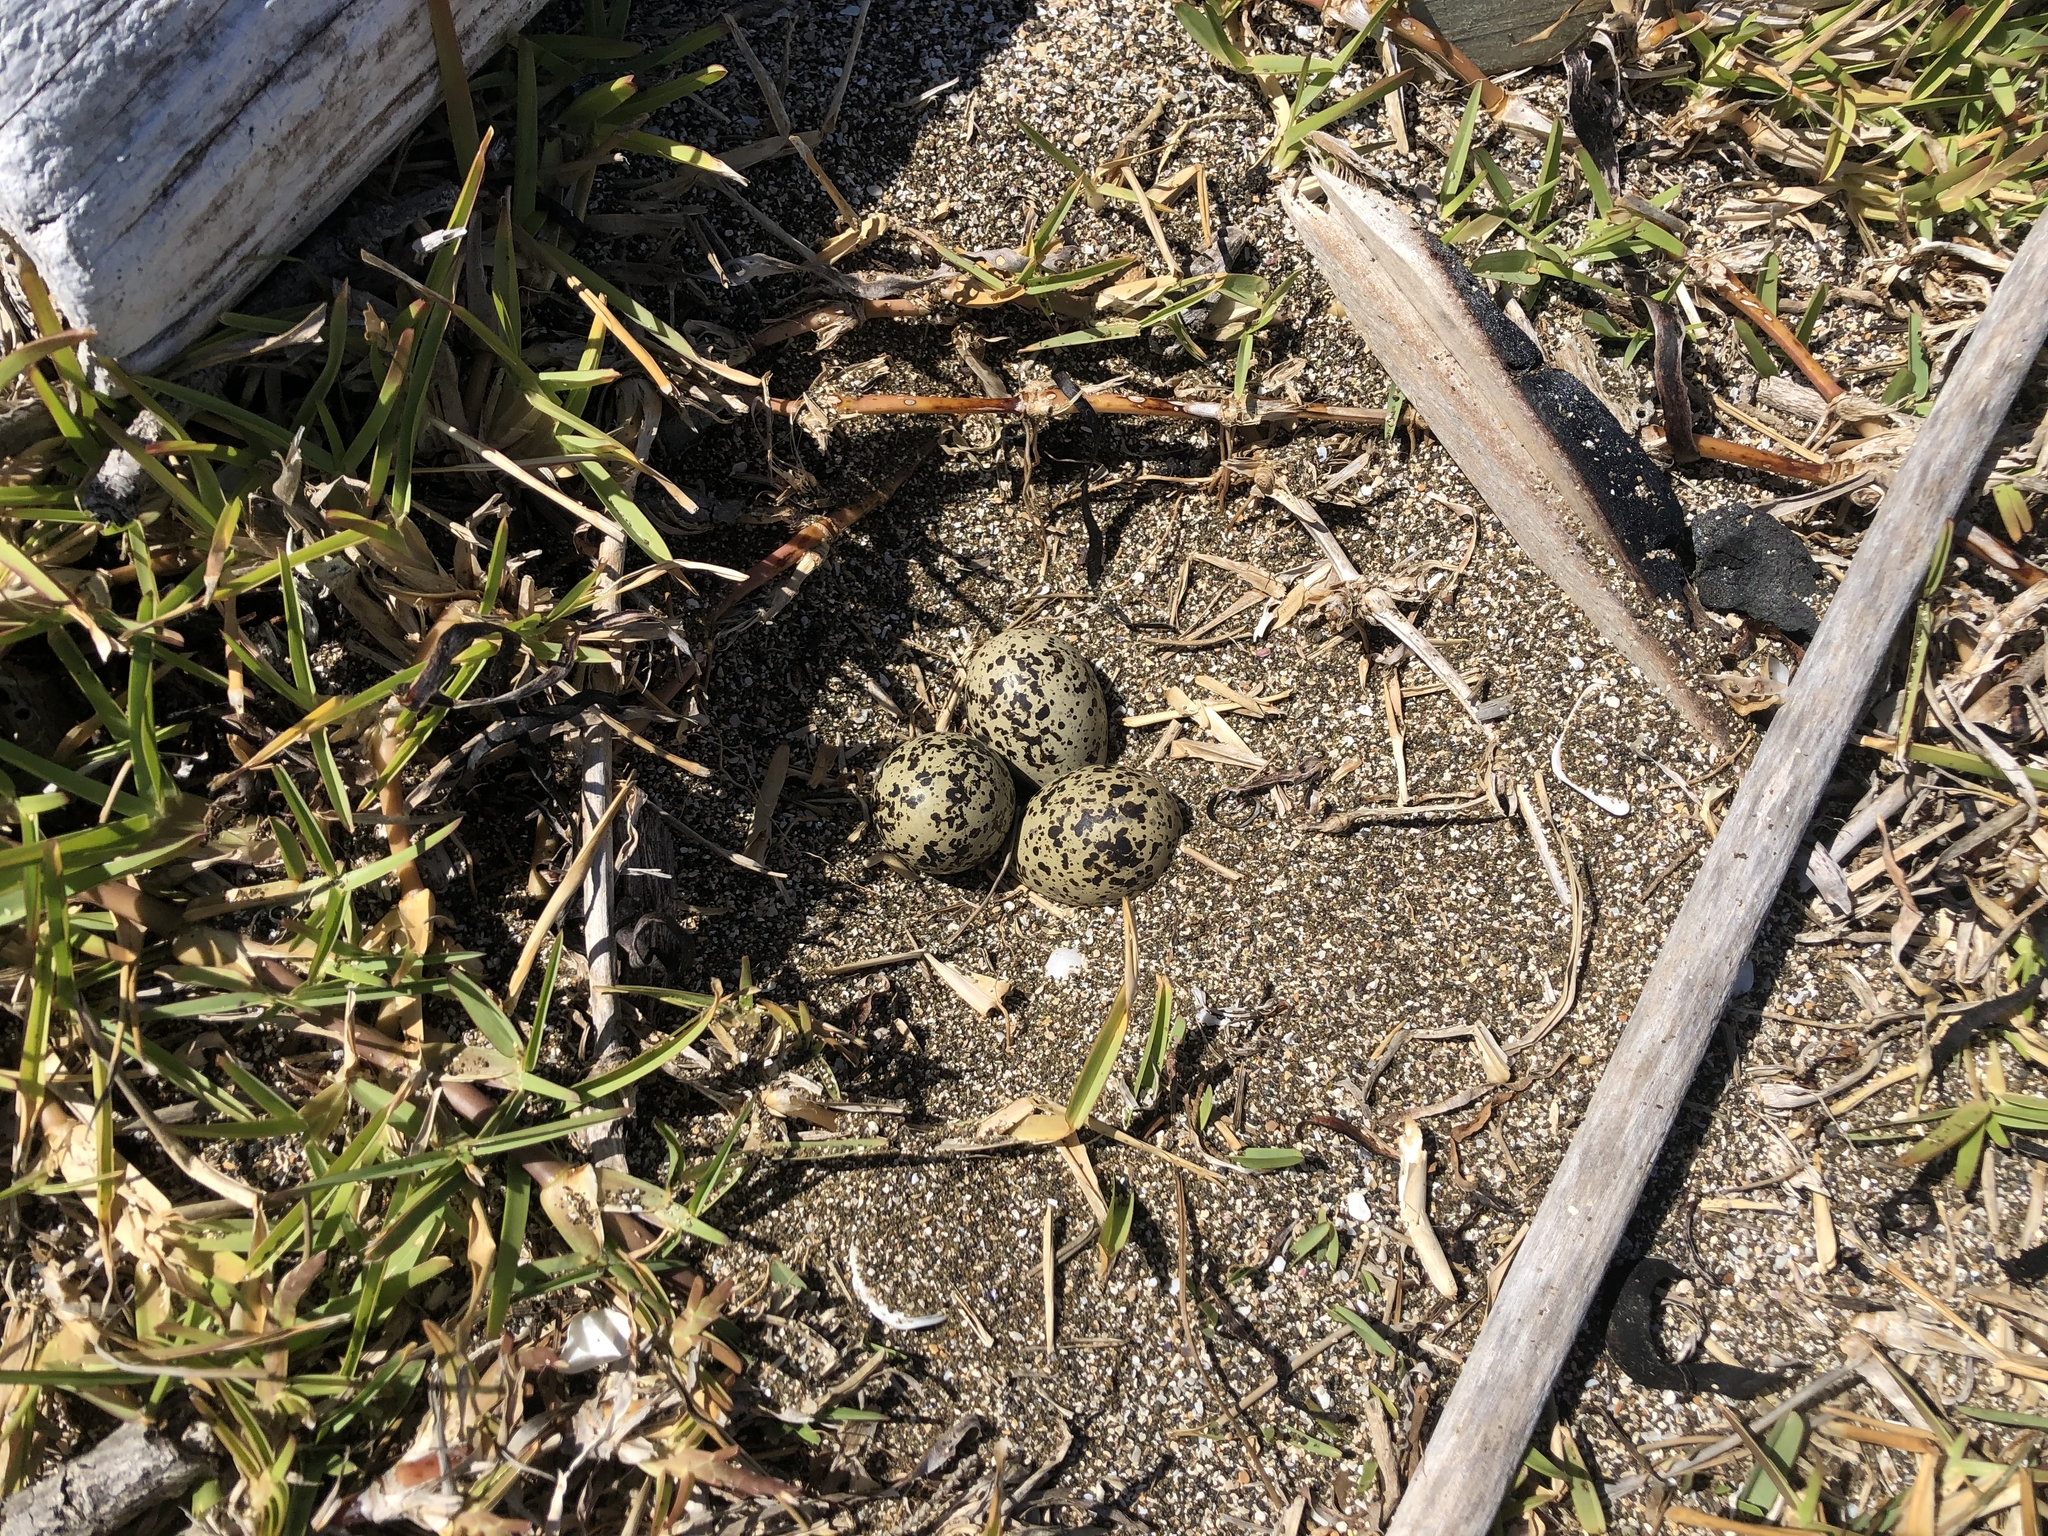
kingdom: Animalia
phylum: Chordata
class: Aves
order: Charadriiformes
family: Charadriidae
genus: Anarhynchus
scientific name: Anarhynchus
